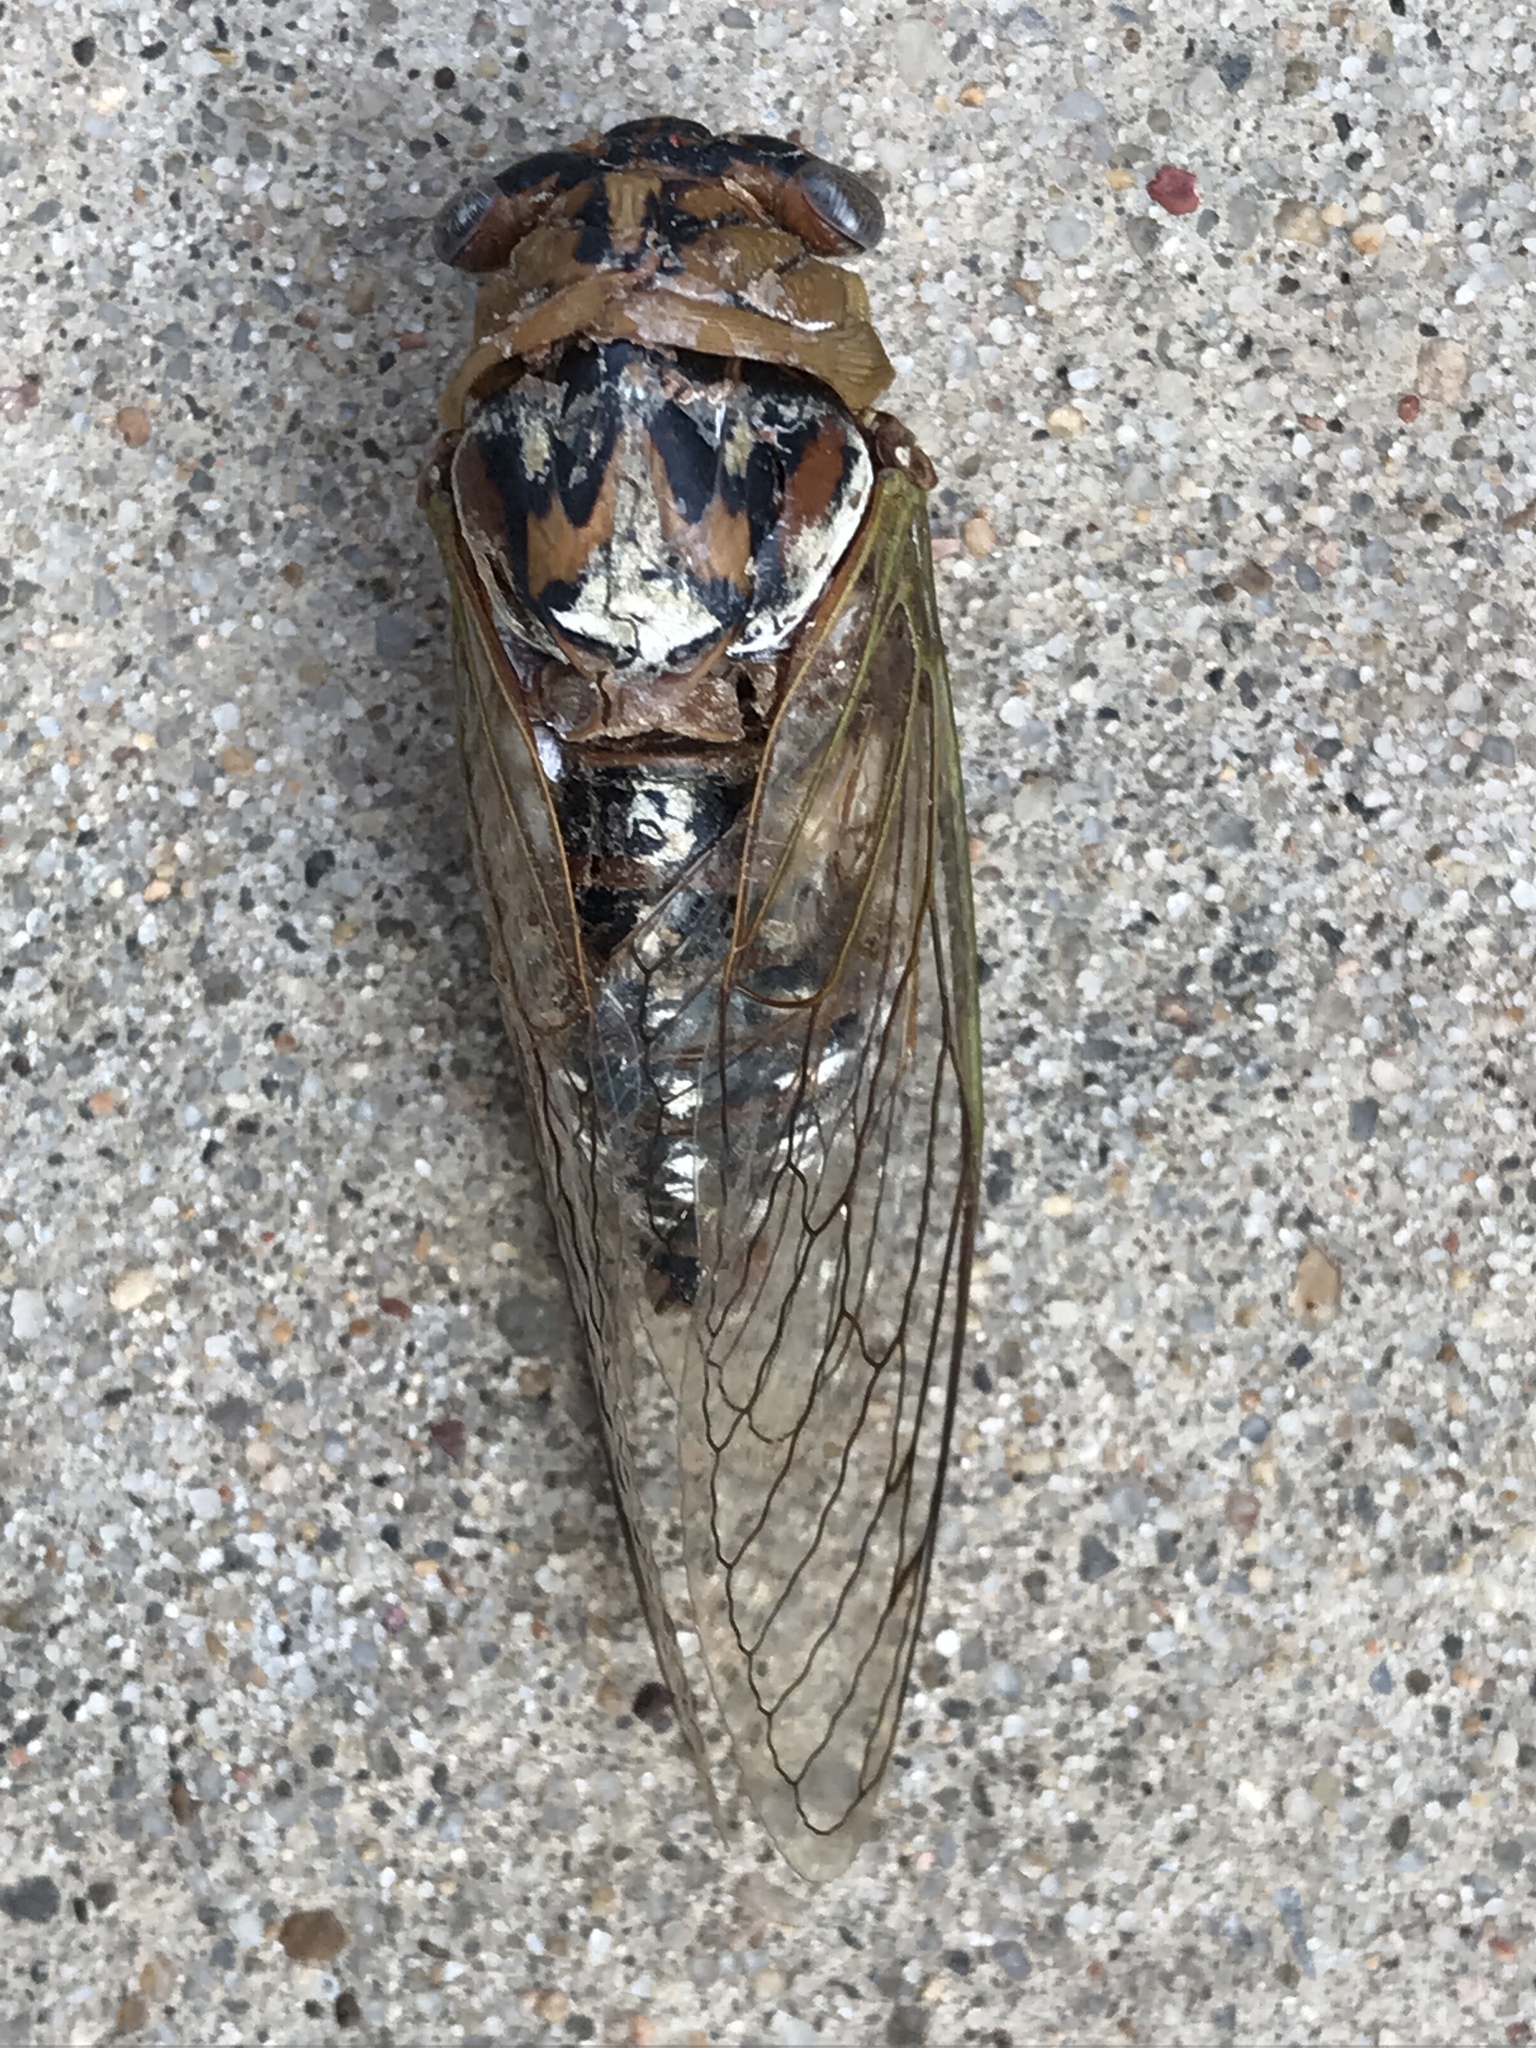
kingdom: Animalia
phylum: Arthropoda
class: Insecta
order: Hemiptera
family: Cicadidae
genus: Megatibicen
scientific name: Megatibicen dealbatus
